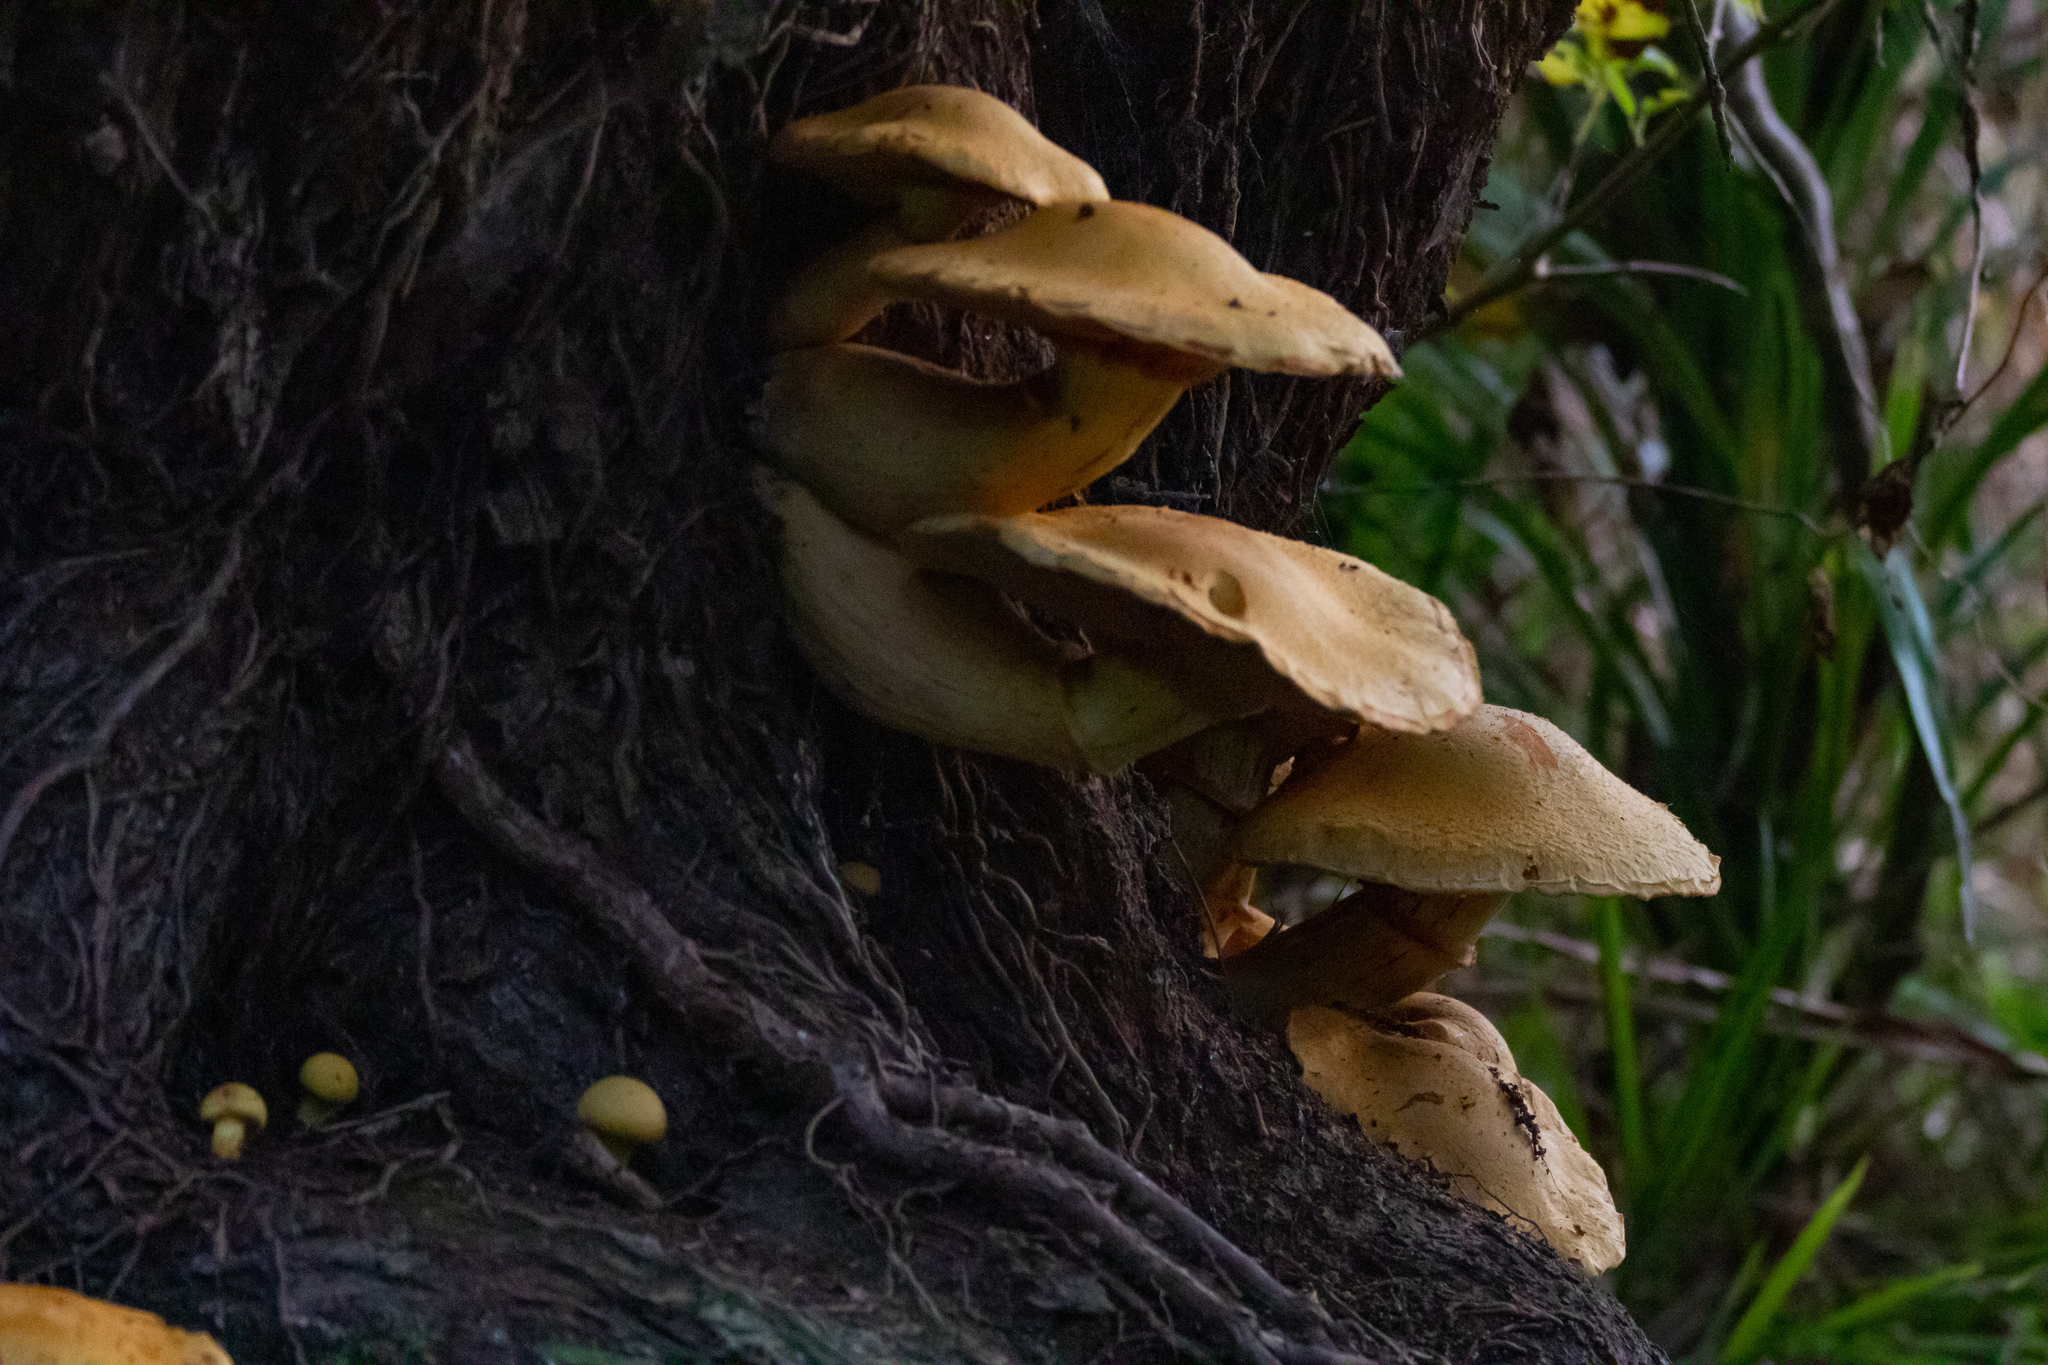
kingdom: Fungi
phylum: Basidiomycota
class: Agaricomycetes
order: Agaricales
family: Hymenogastraceae
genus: Gymnopilus
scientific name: Gymnopilus junonius
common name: Spectacular rustgill
